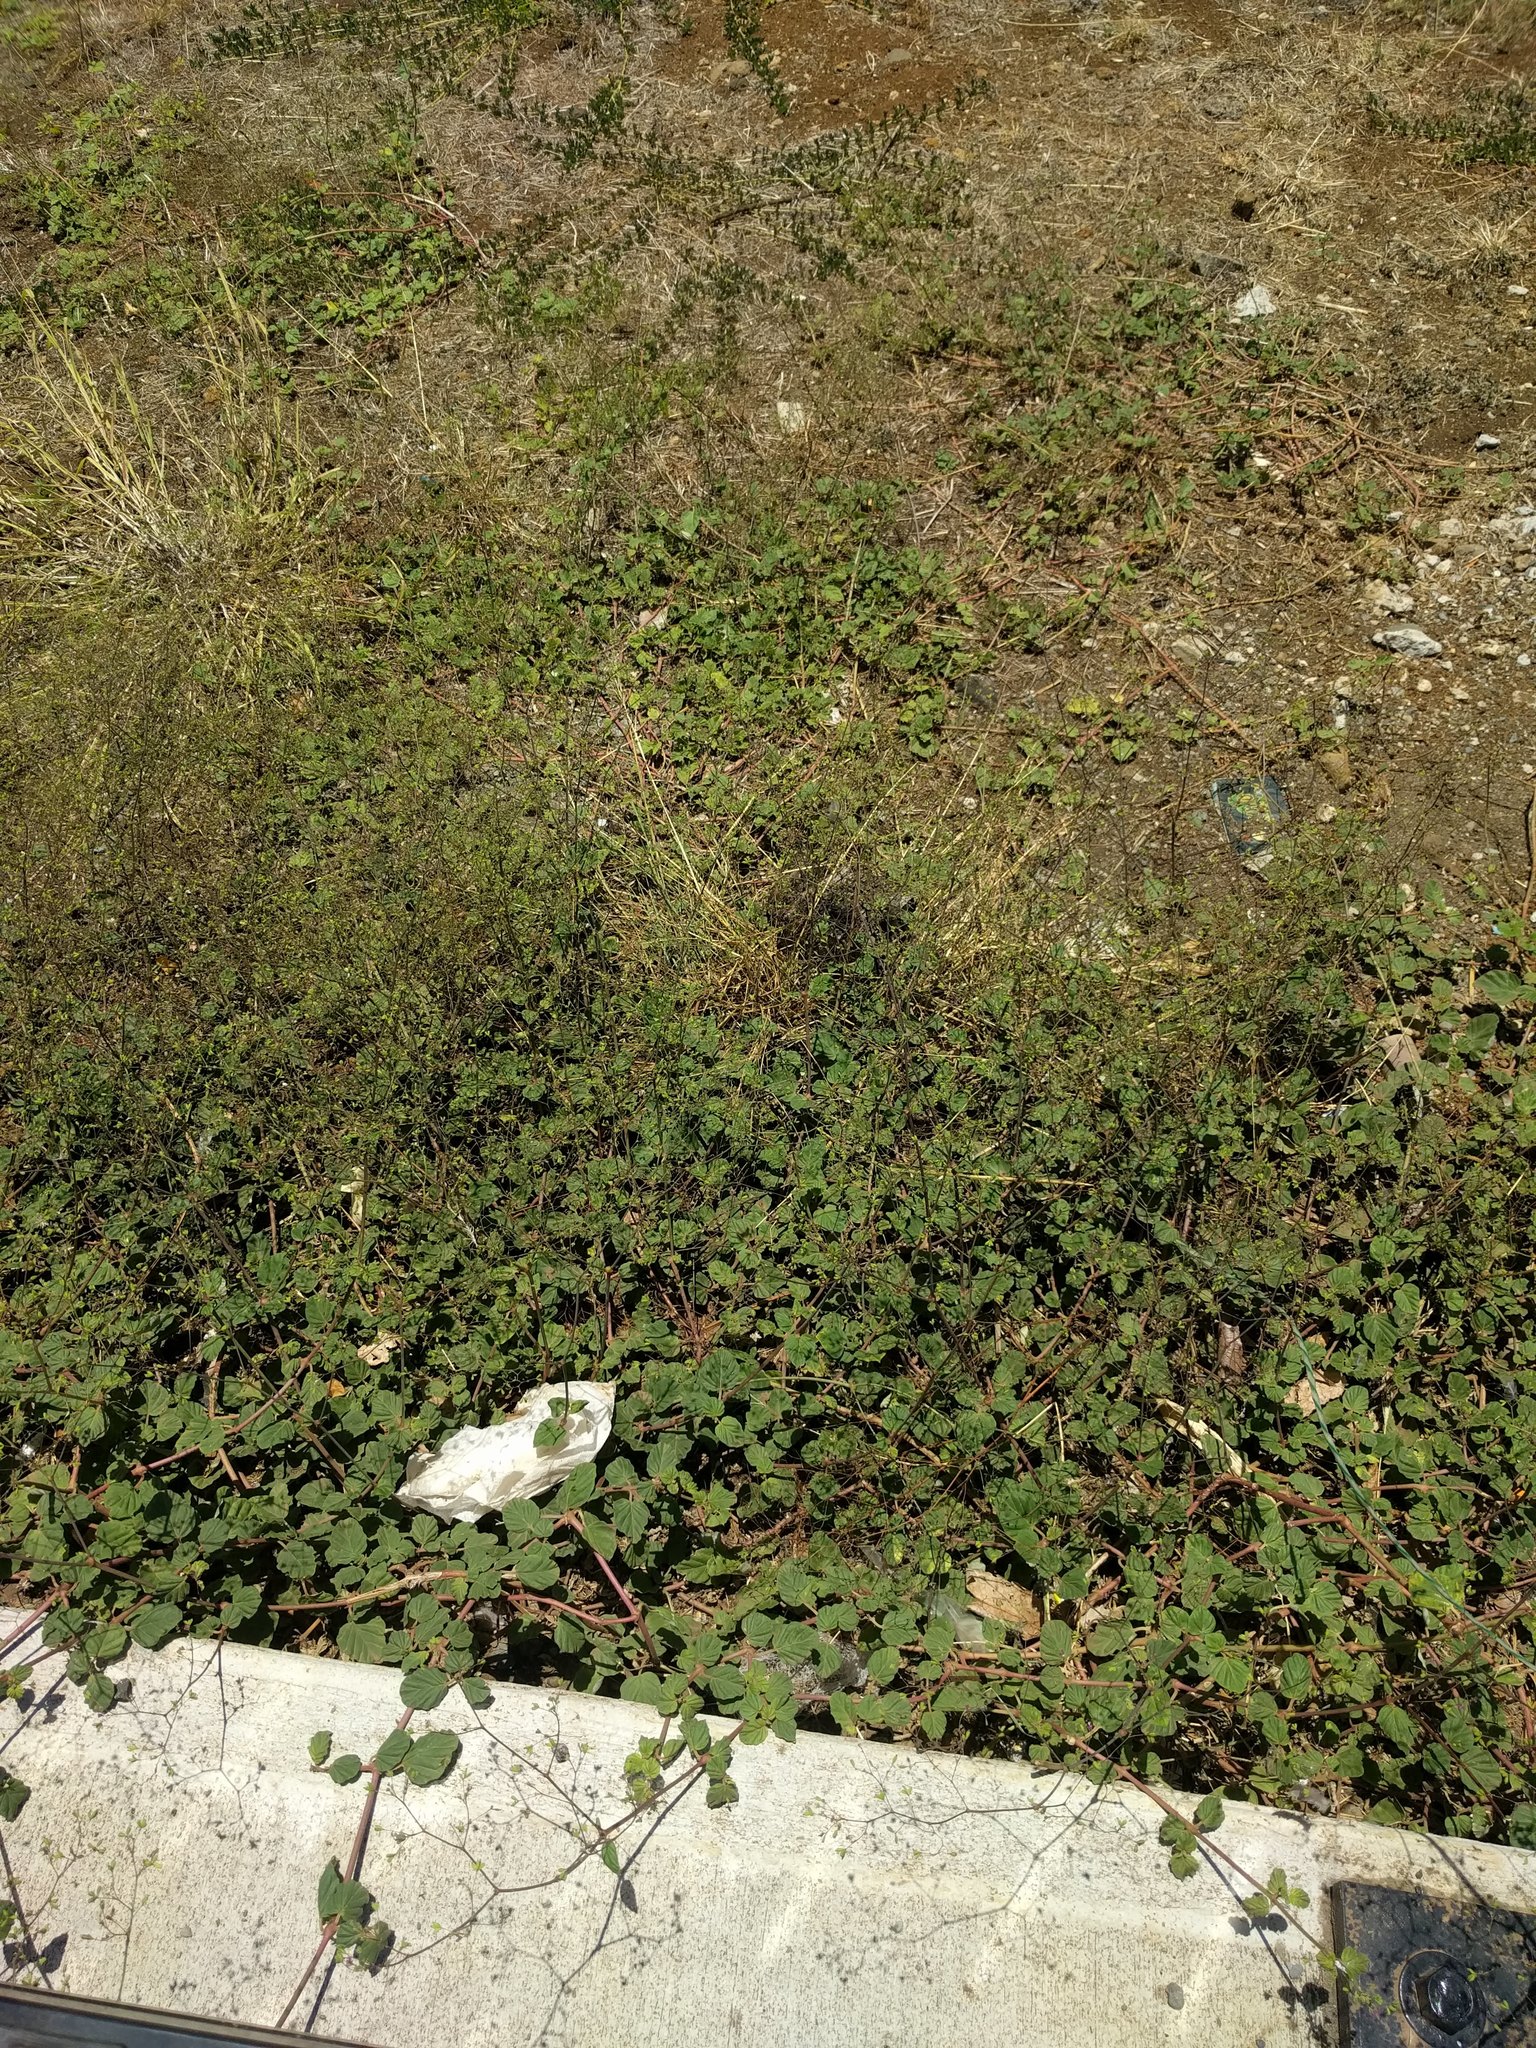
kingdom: Plantae
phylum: Tracheophyta
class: Magnoliopsida
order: Caryophyllales
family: Nyctaginaceae
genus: Boerhavia
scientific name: Boerhavia diffusa
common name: Red spiderling
